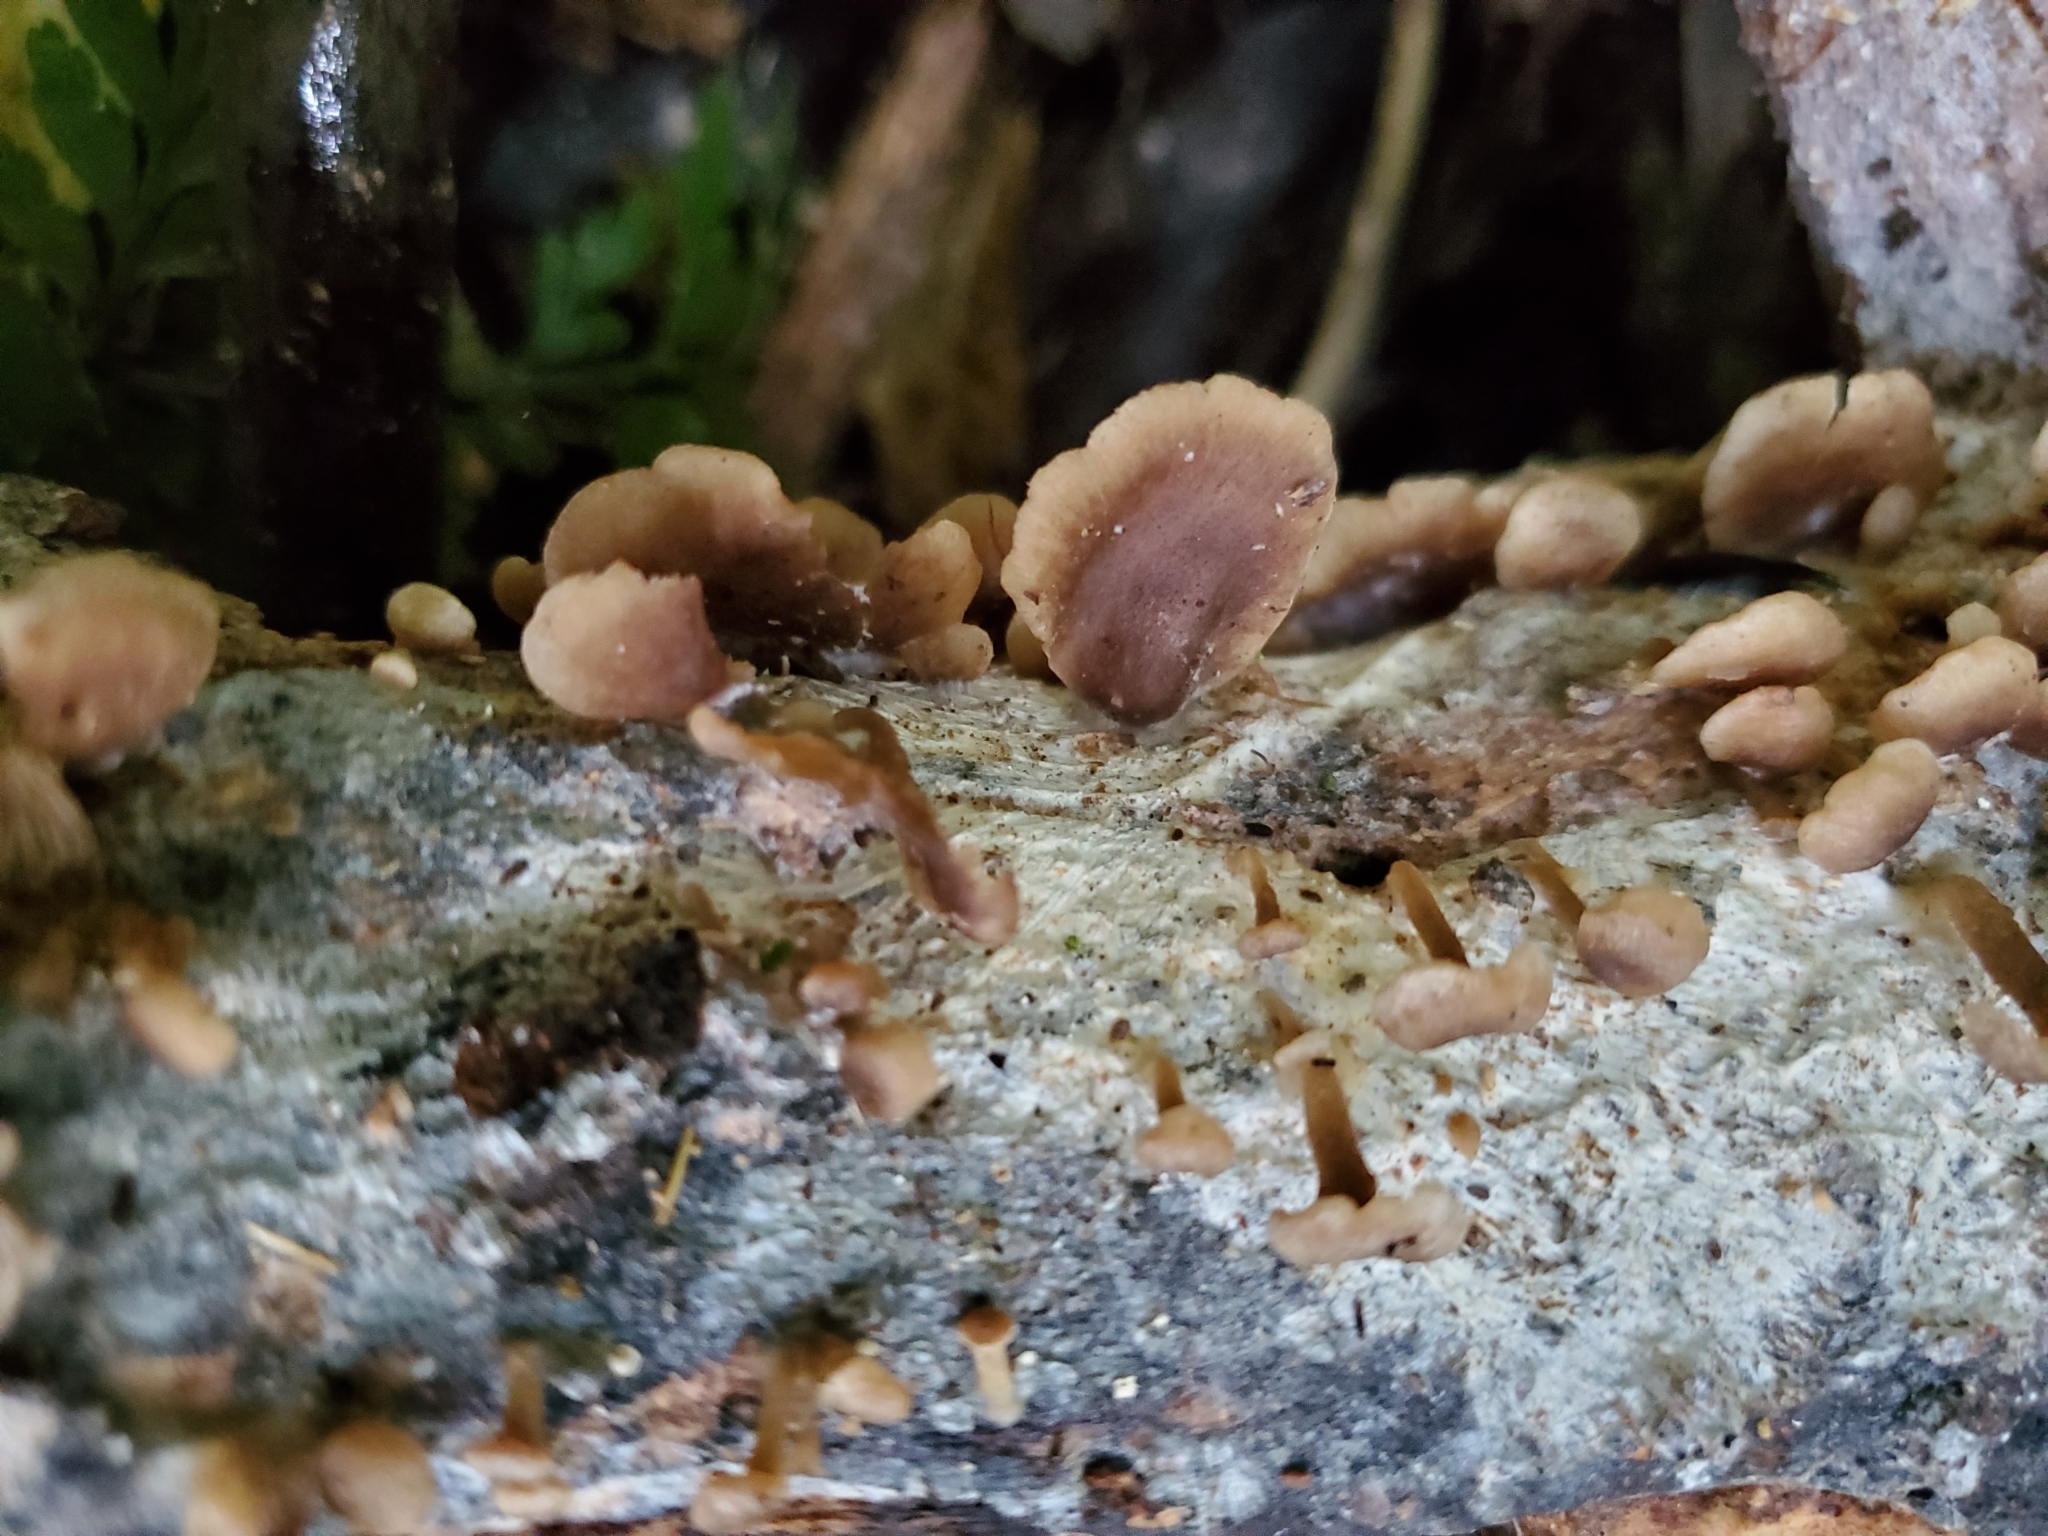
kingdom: Fungi
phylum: Basidiomycota
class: Agaricomycetes
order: Agaricales
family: Tricholomataceae
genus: Rhizocybe
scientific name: Rhizocybe
